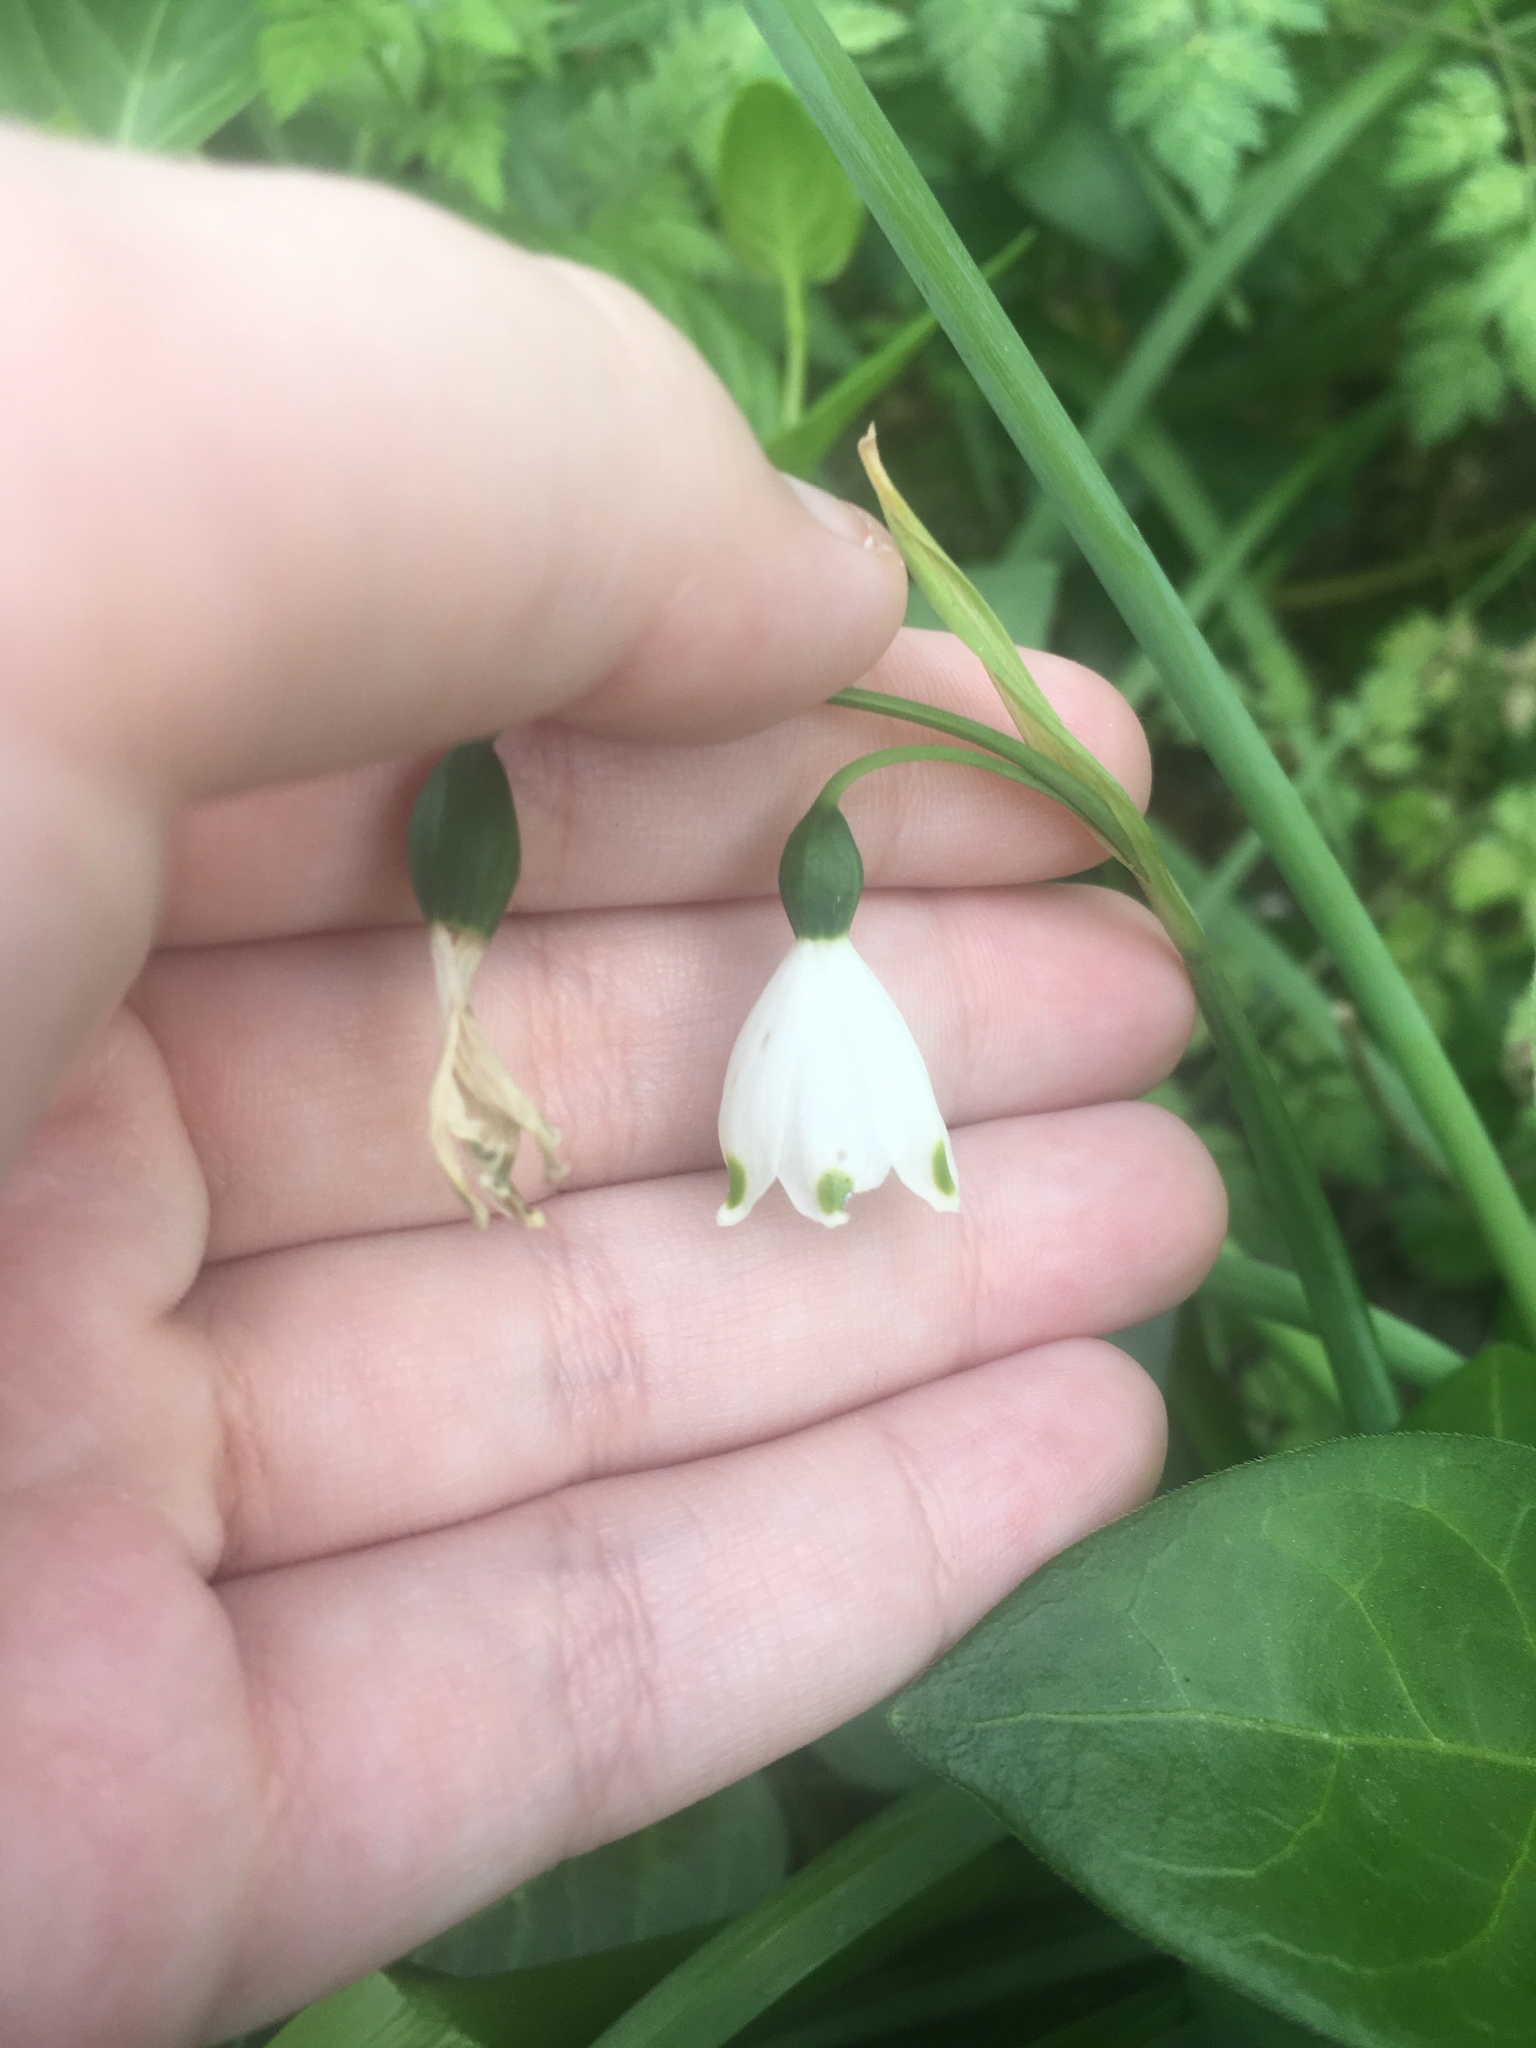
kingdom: Plantae
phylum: Tracheophyta
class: Liliopsida
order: Asparagales
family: Amaryllidaceae
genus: Leucojum
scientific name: Leucojum aestivum
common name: Summer snowflake
